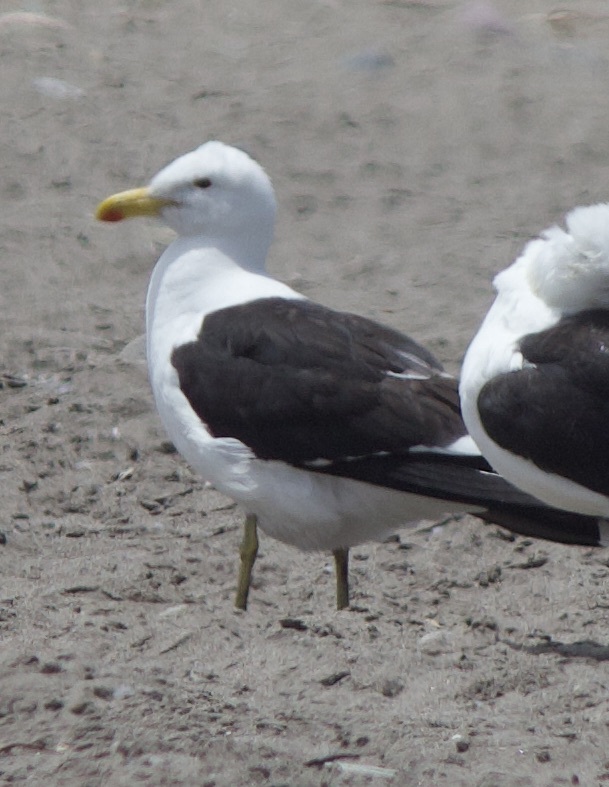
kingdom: Animalia
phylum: Chordata
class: Aves
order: Charadriiformes
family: Laridae
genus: Larus
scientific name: Larus dominicanus
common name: Kelp gull
